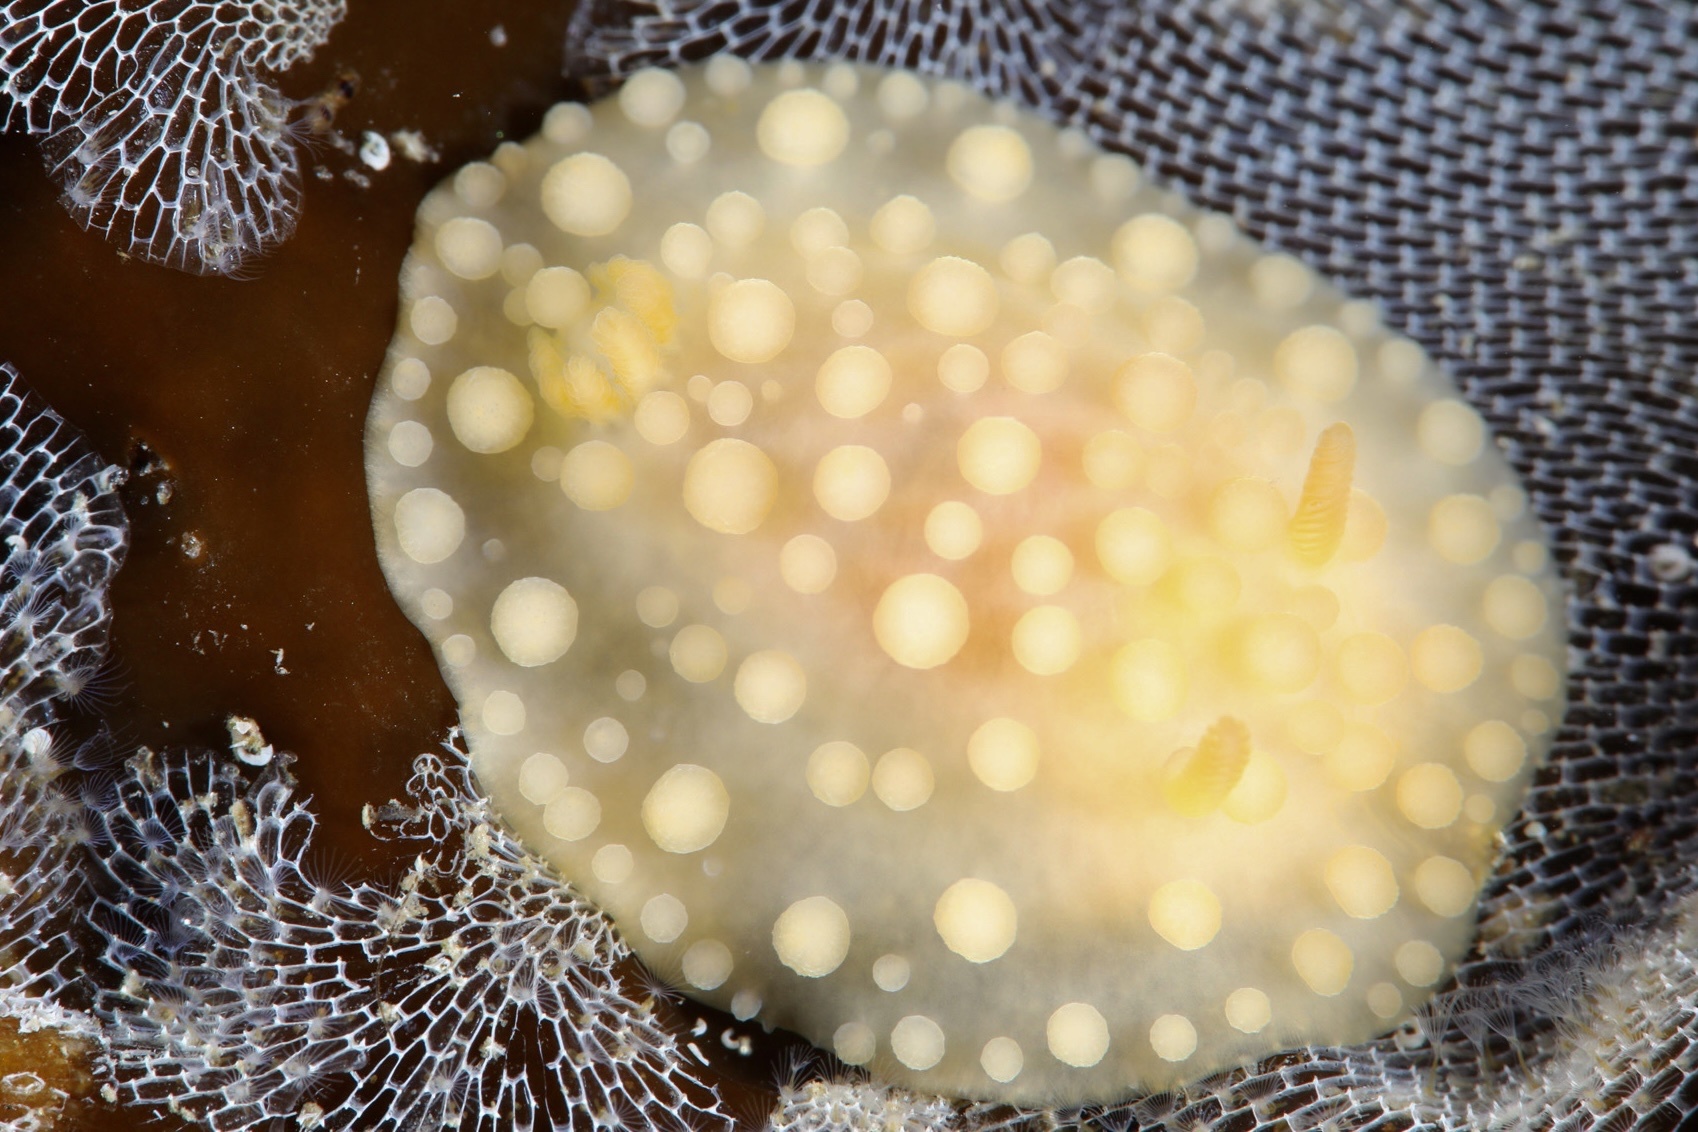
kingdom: Animalia
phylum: Mollusca
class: Gastropoda
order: Nudibranchia
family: Onchidorididae
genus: Adalaria
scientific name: Adalaria loveni
